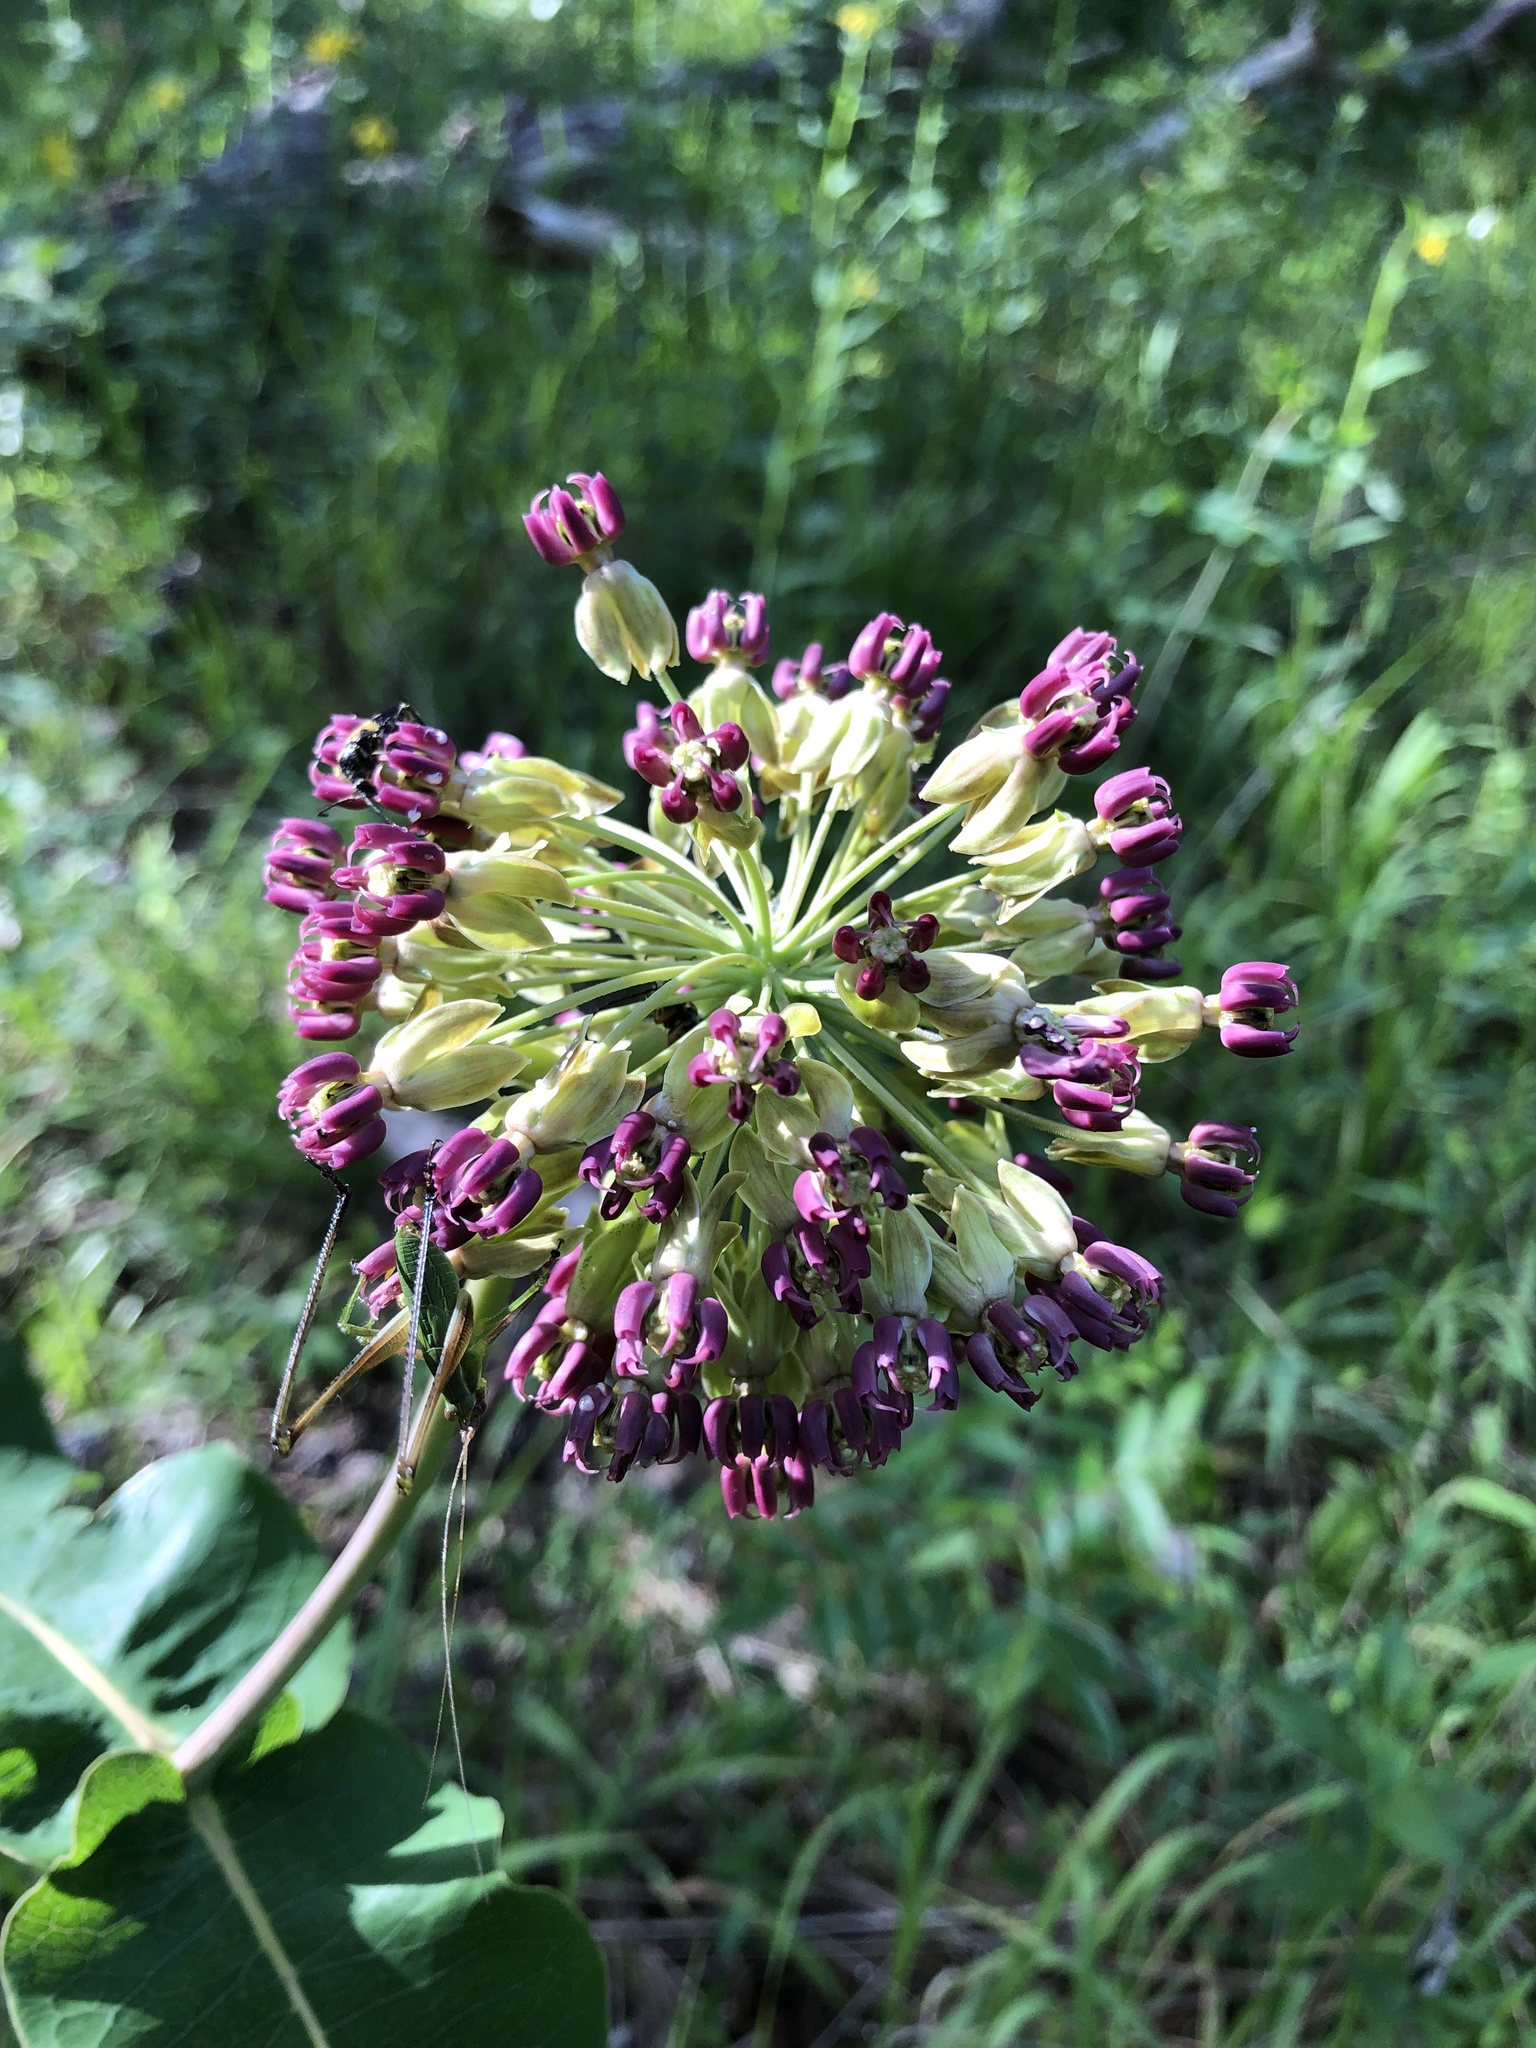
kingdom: Plantae
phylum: Tracheophyta
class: Magnoliopsida
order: Gentianales
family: Apocynaceae
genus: Asclepias
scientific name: Asclepias amplexicaulis
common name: Blunt-leaf milkweed
